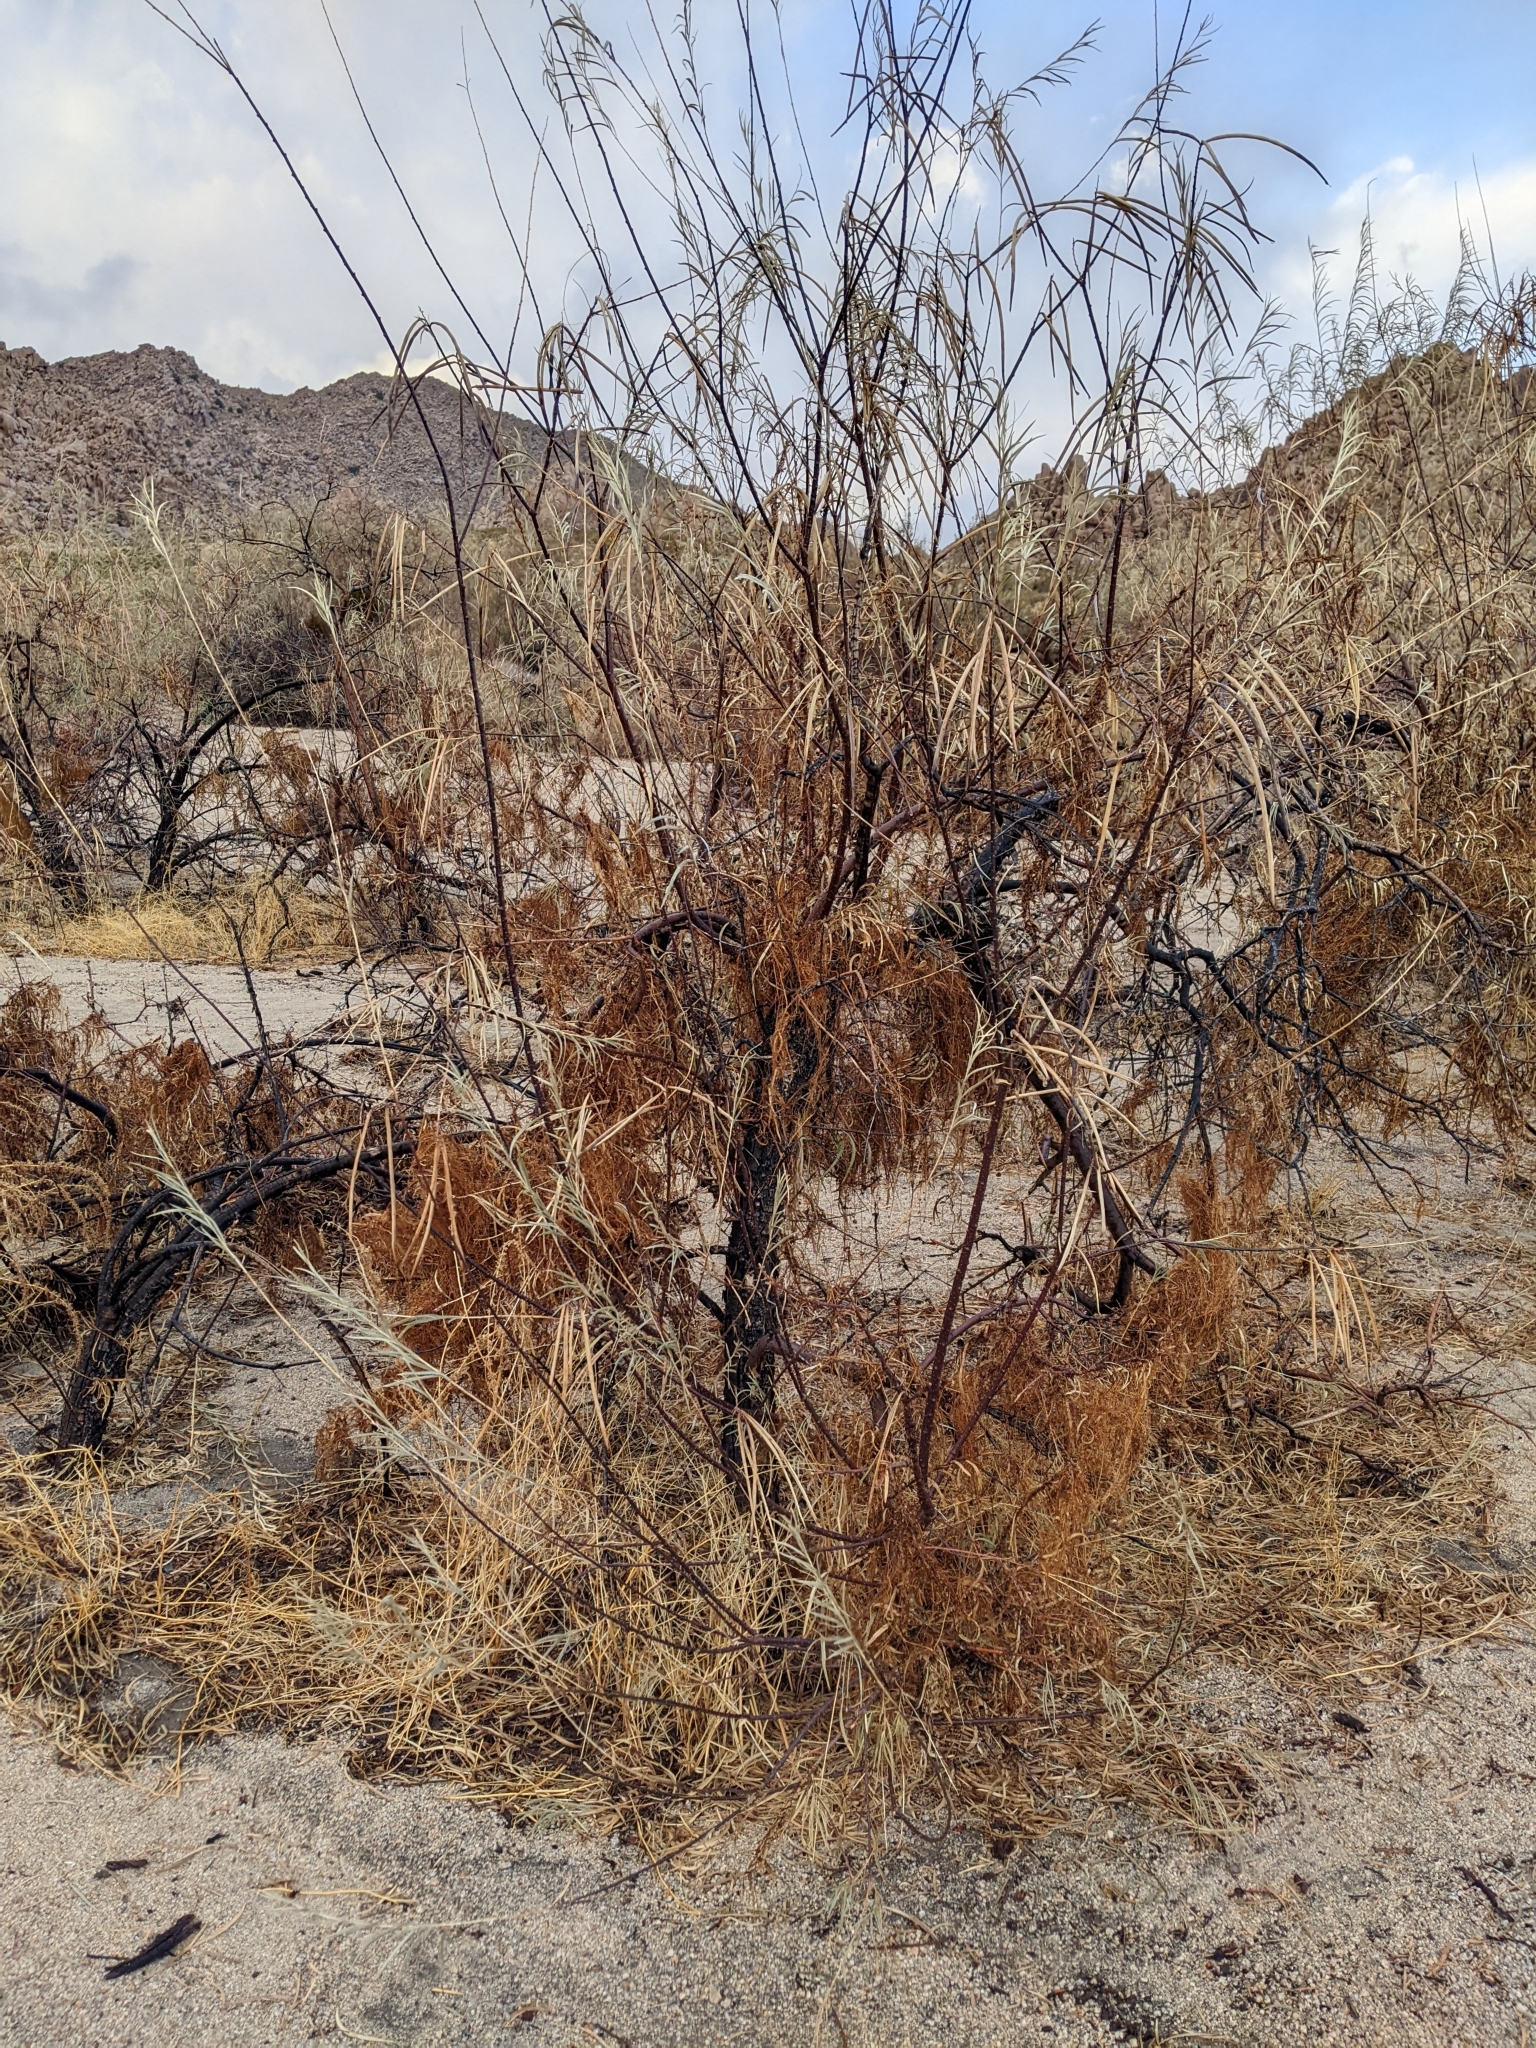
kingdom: Plantae
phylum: Tracheophyta
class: Magnoliopsida
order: Lamiales
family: Bignoniaceae
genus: Chilopsis
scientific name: Chilopsis linearis
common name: Desert-willow
